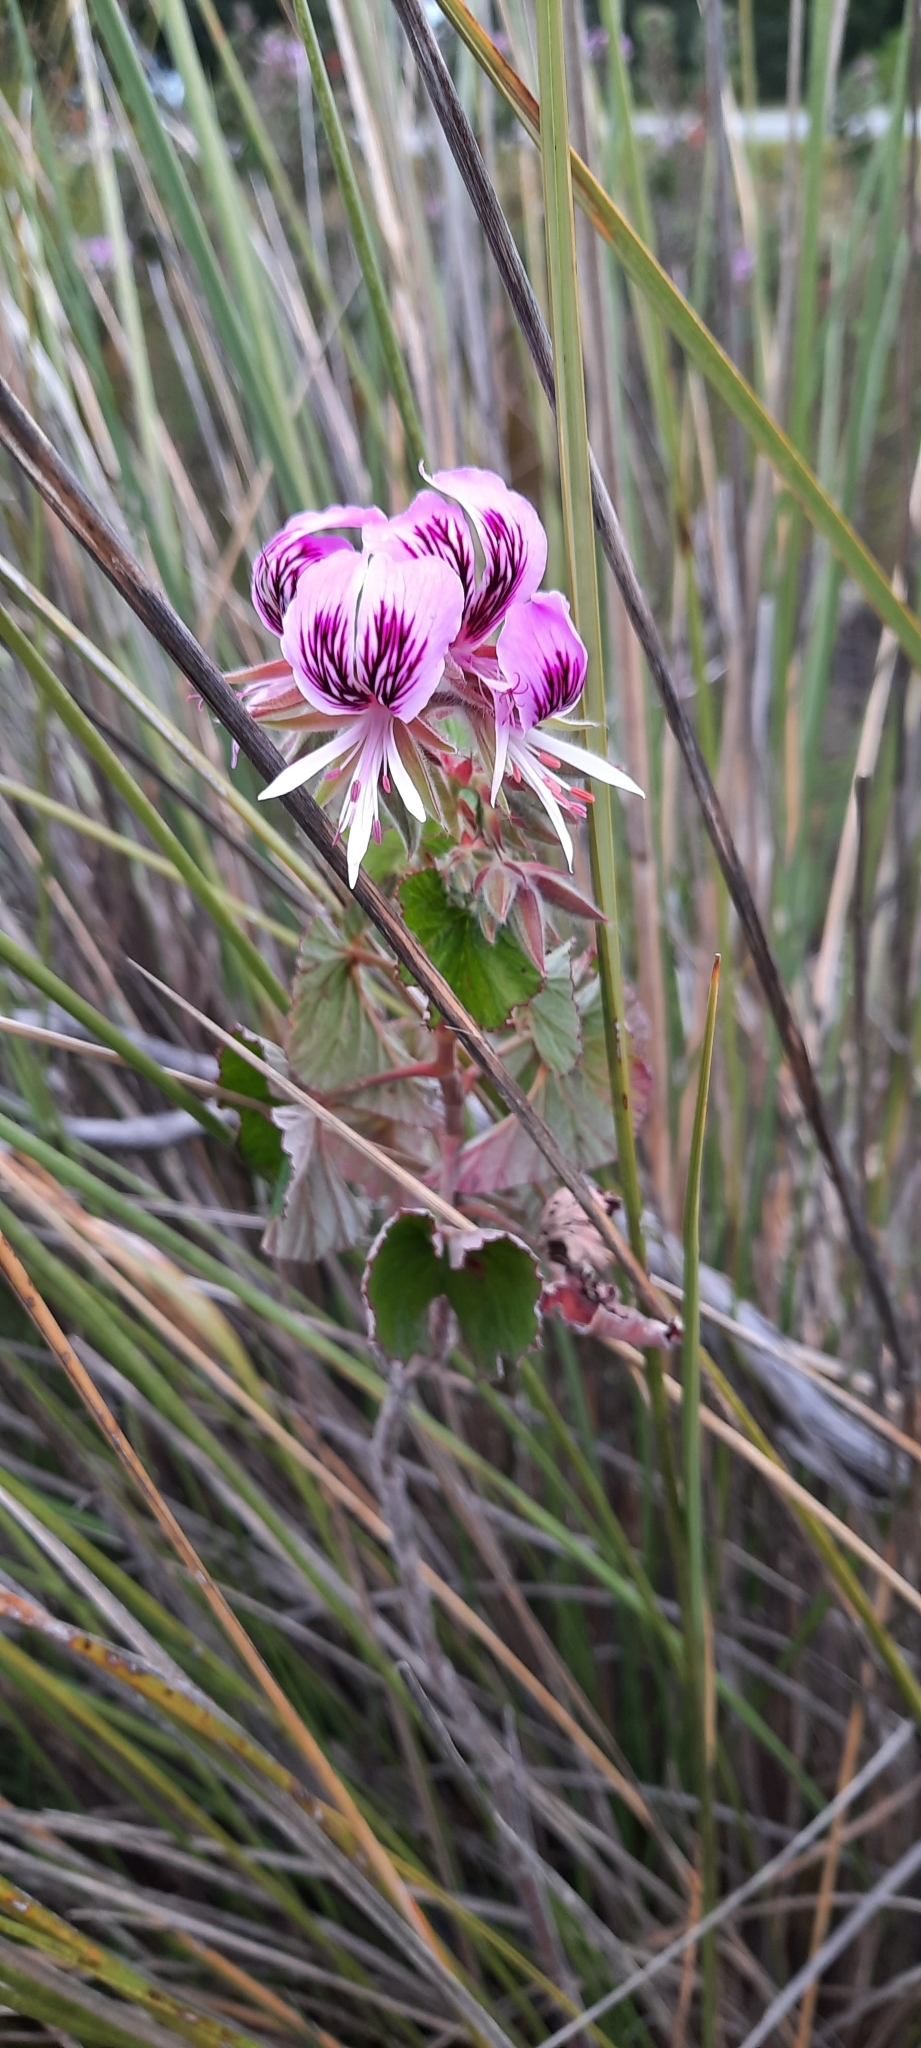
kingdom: Plantae
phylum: Tracheophyta
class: Magnoliopsida
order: Geraniales
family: Geraniaceae
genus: Pelargonium
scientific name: Pelargonium cordifolium
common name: Heart-leaf pelargonium
